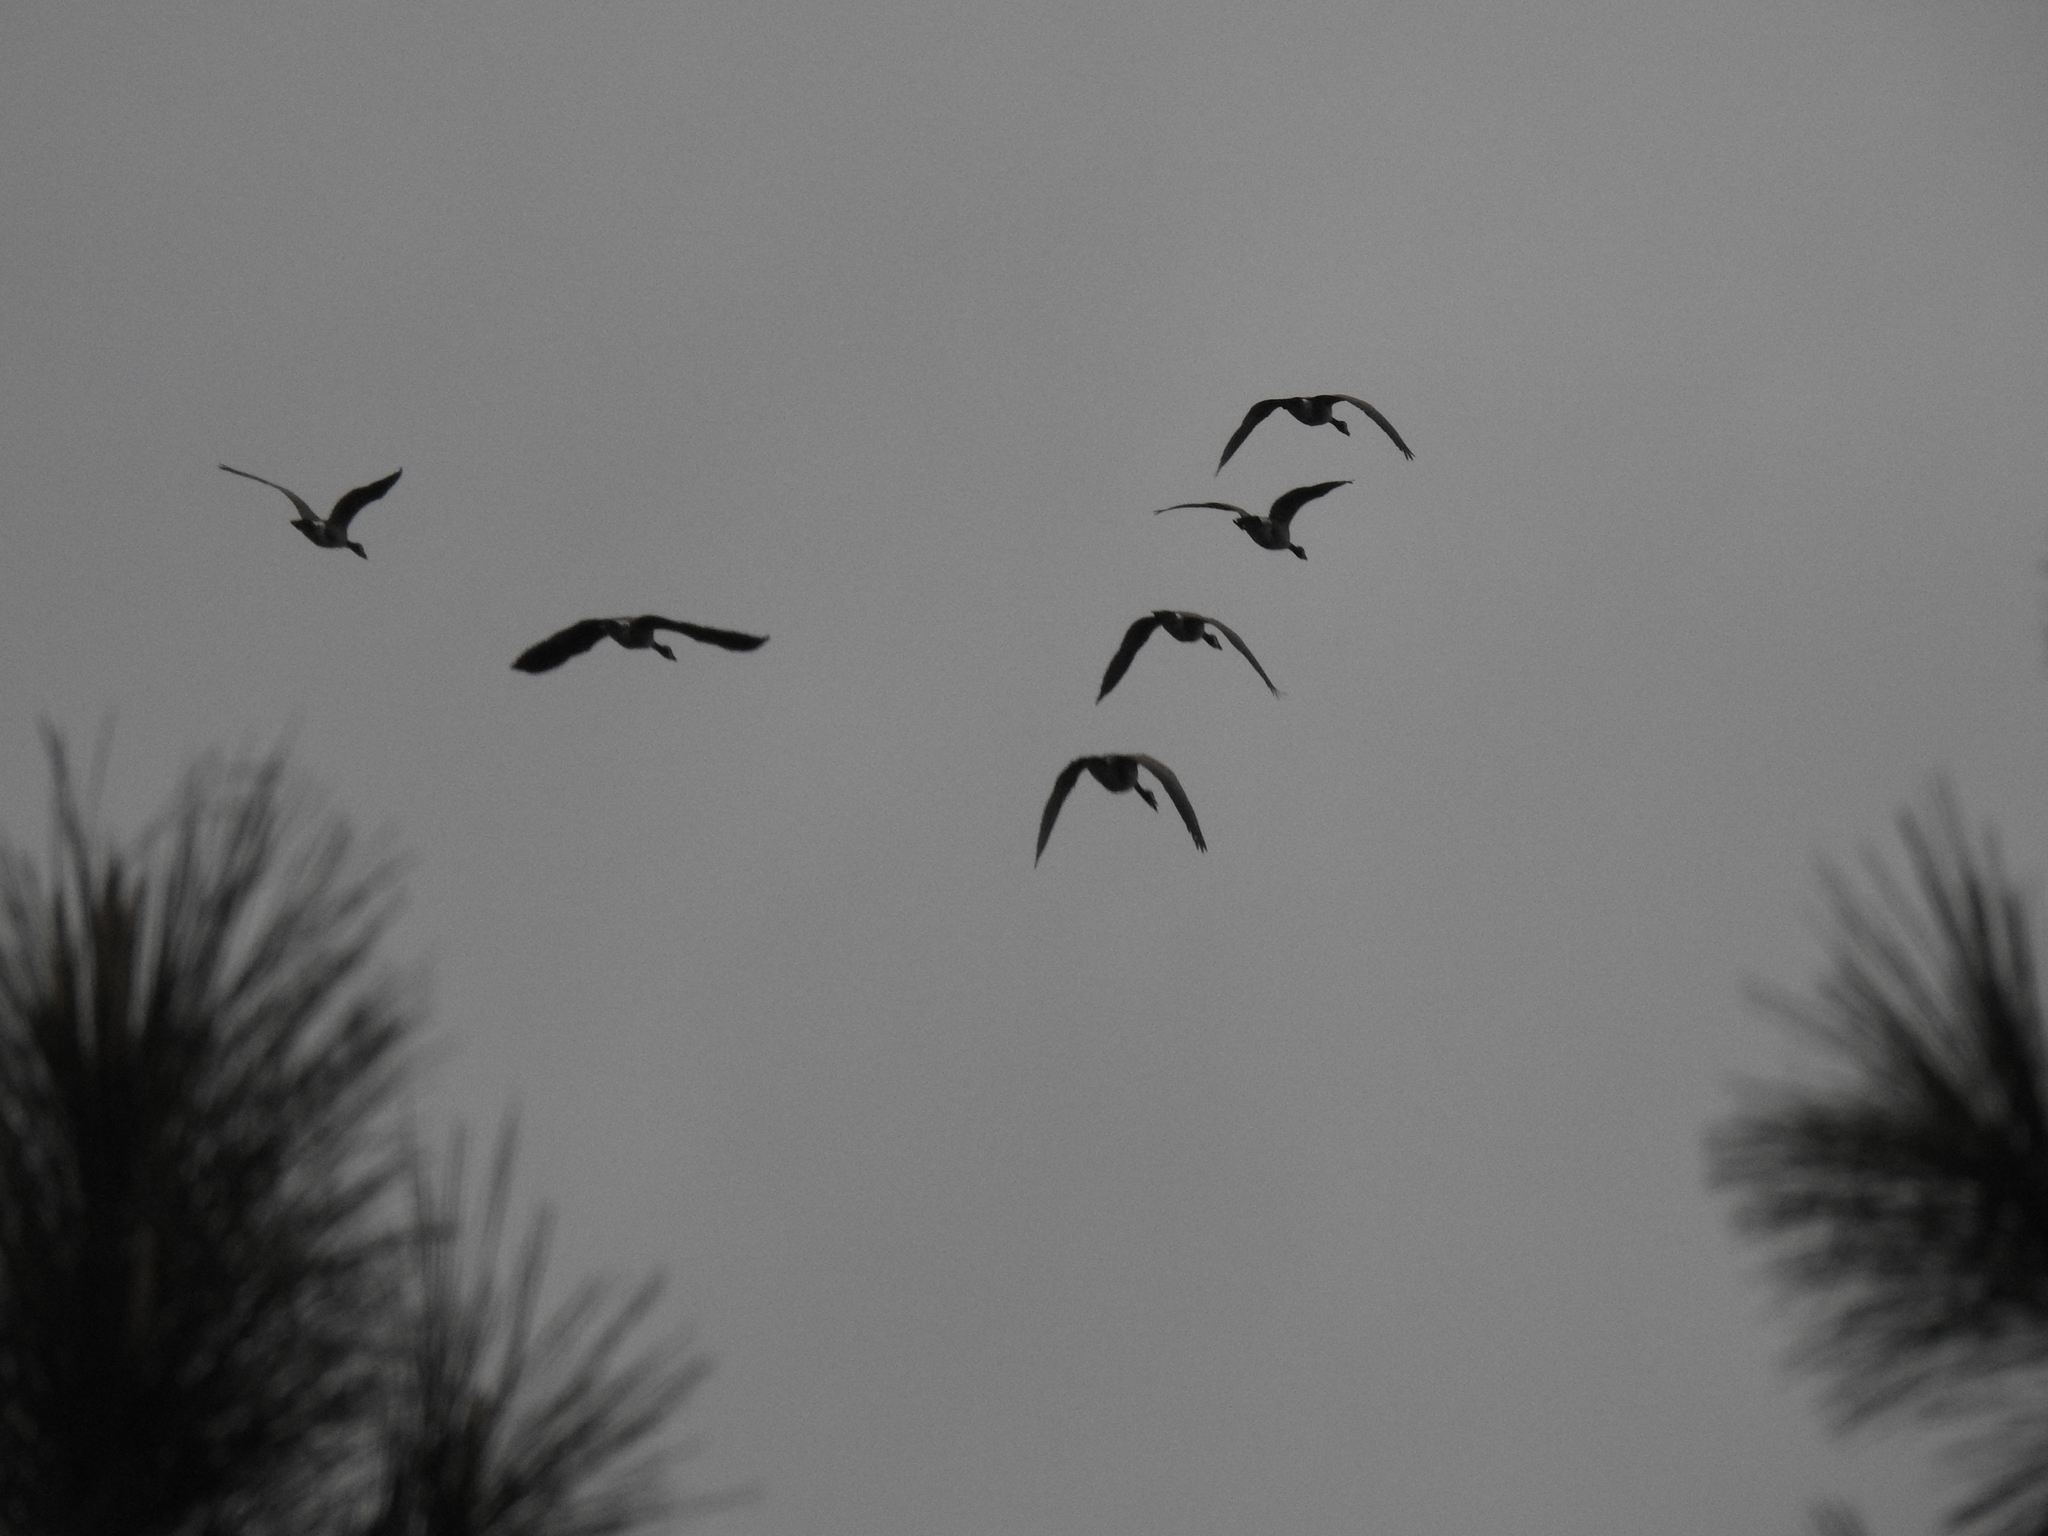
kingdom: Animalia
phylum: Chordata
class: Aves
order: Anseriformes
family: Anatidae
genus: Branta
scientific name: Branta canadensis
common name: Canada goose
